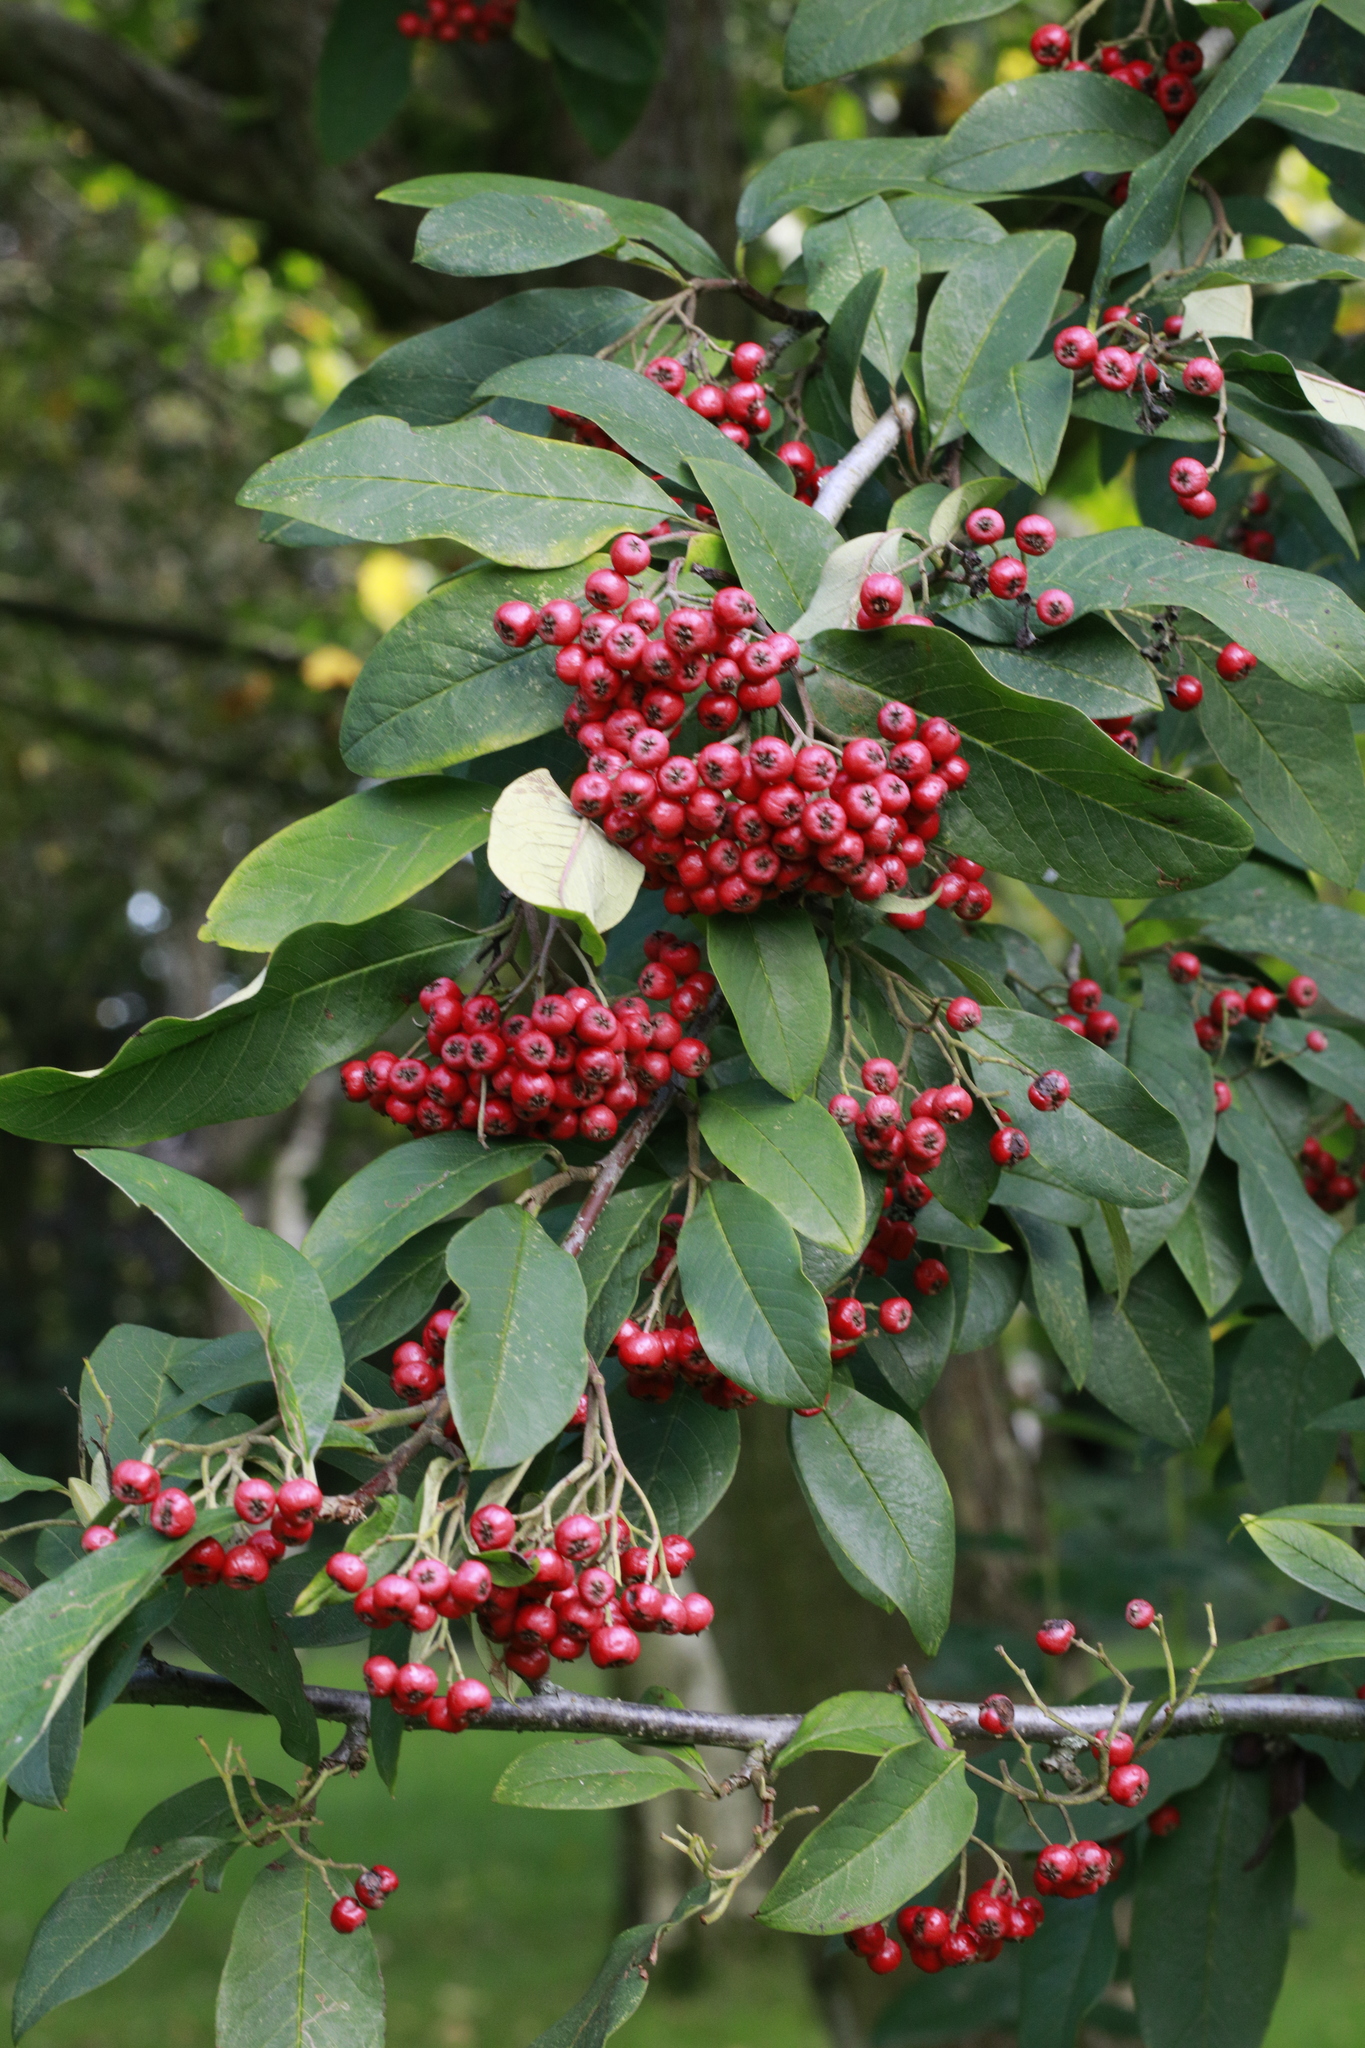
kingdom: Plantae
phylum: Tracheophyta
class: Magnoliopsida
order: Rosales
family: Rosaceae
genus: Stranvaesia
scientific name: Stranvaesia davidiana
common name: Chinese photinia
